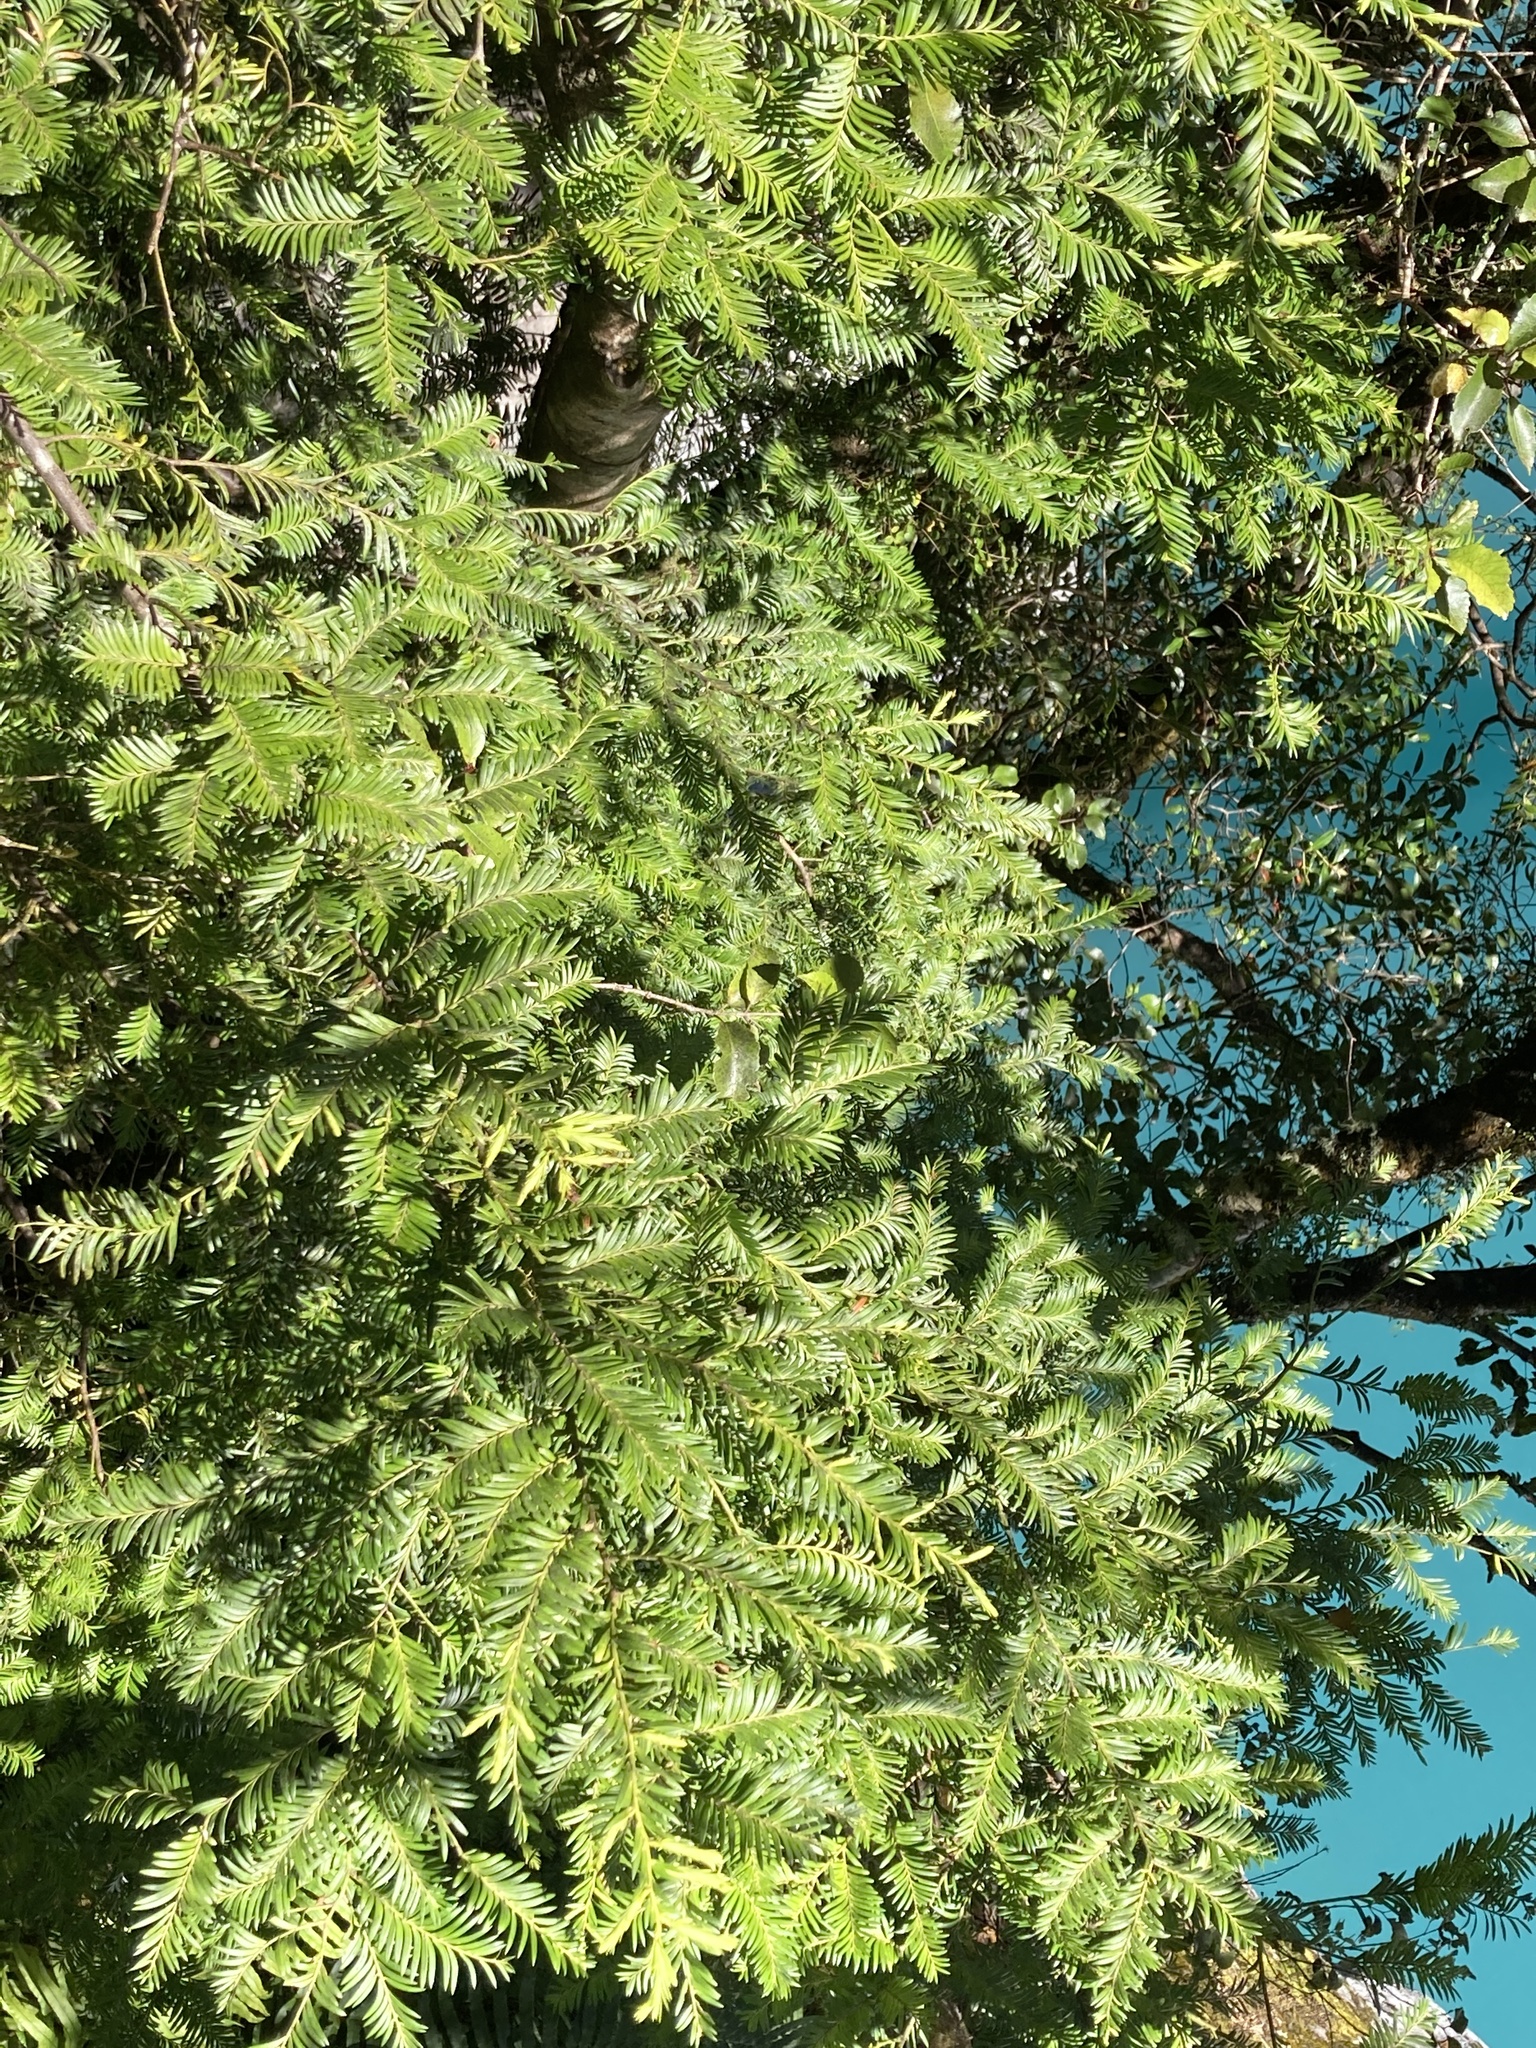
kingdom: Plantae
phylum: Tracheophyta
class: Pinopsida
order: Pinales
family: Podocarpaceae
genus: Prumnopitys
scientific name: Prumnopitys ferruginea
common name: Brown pine
